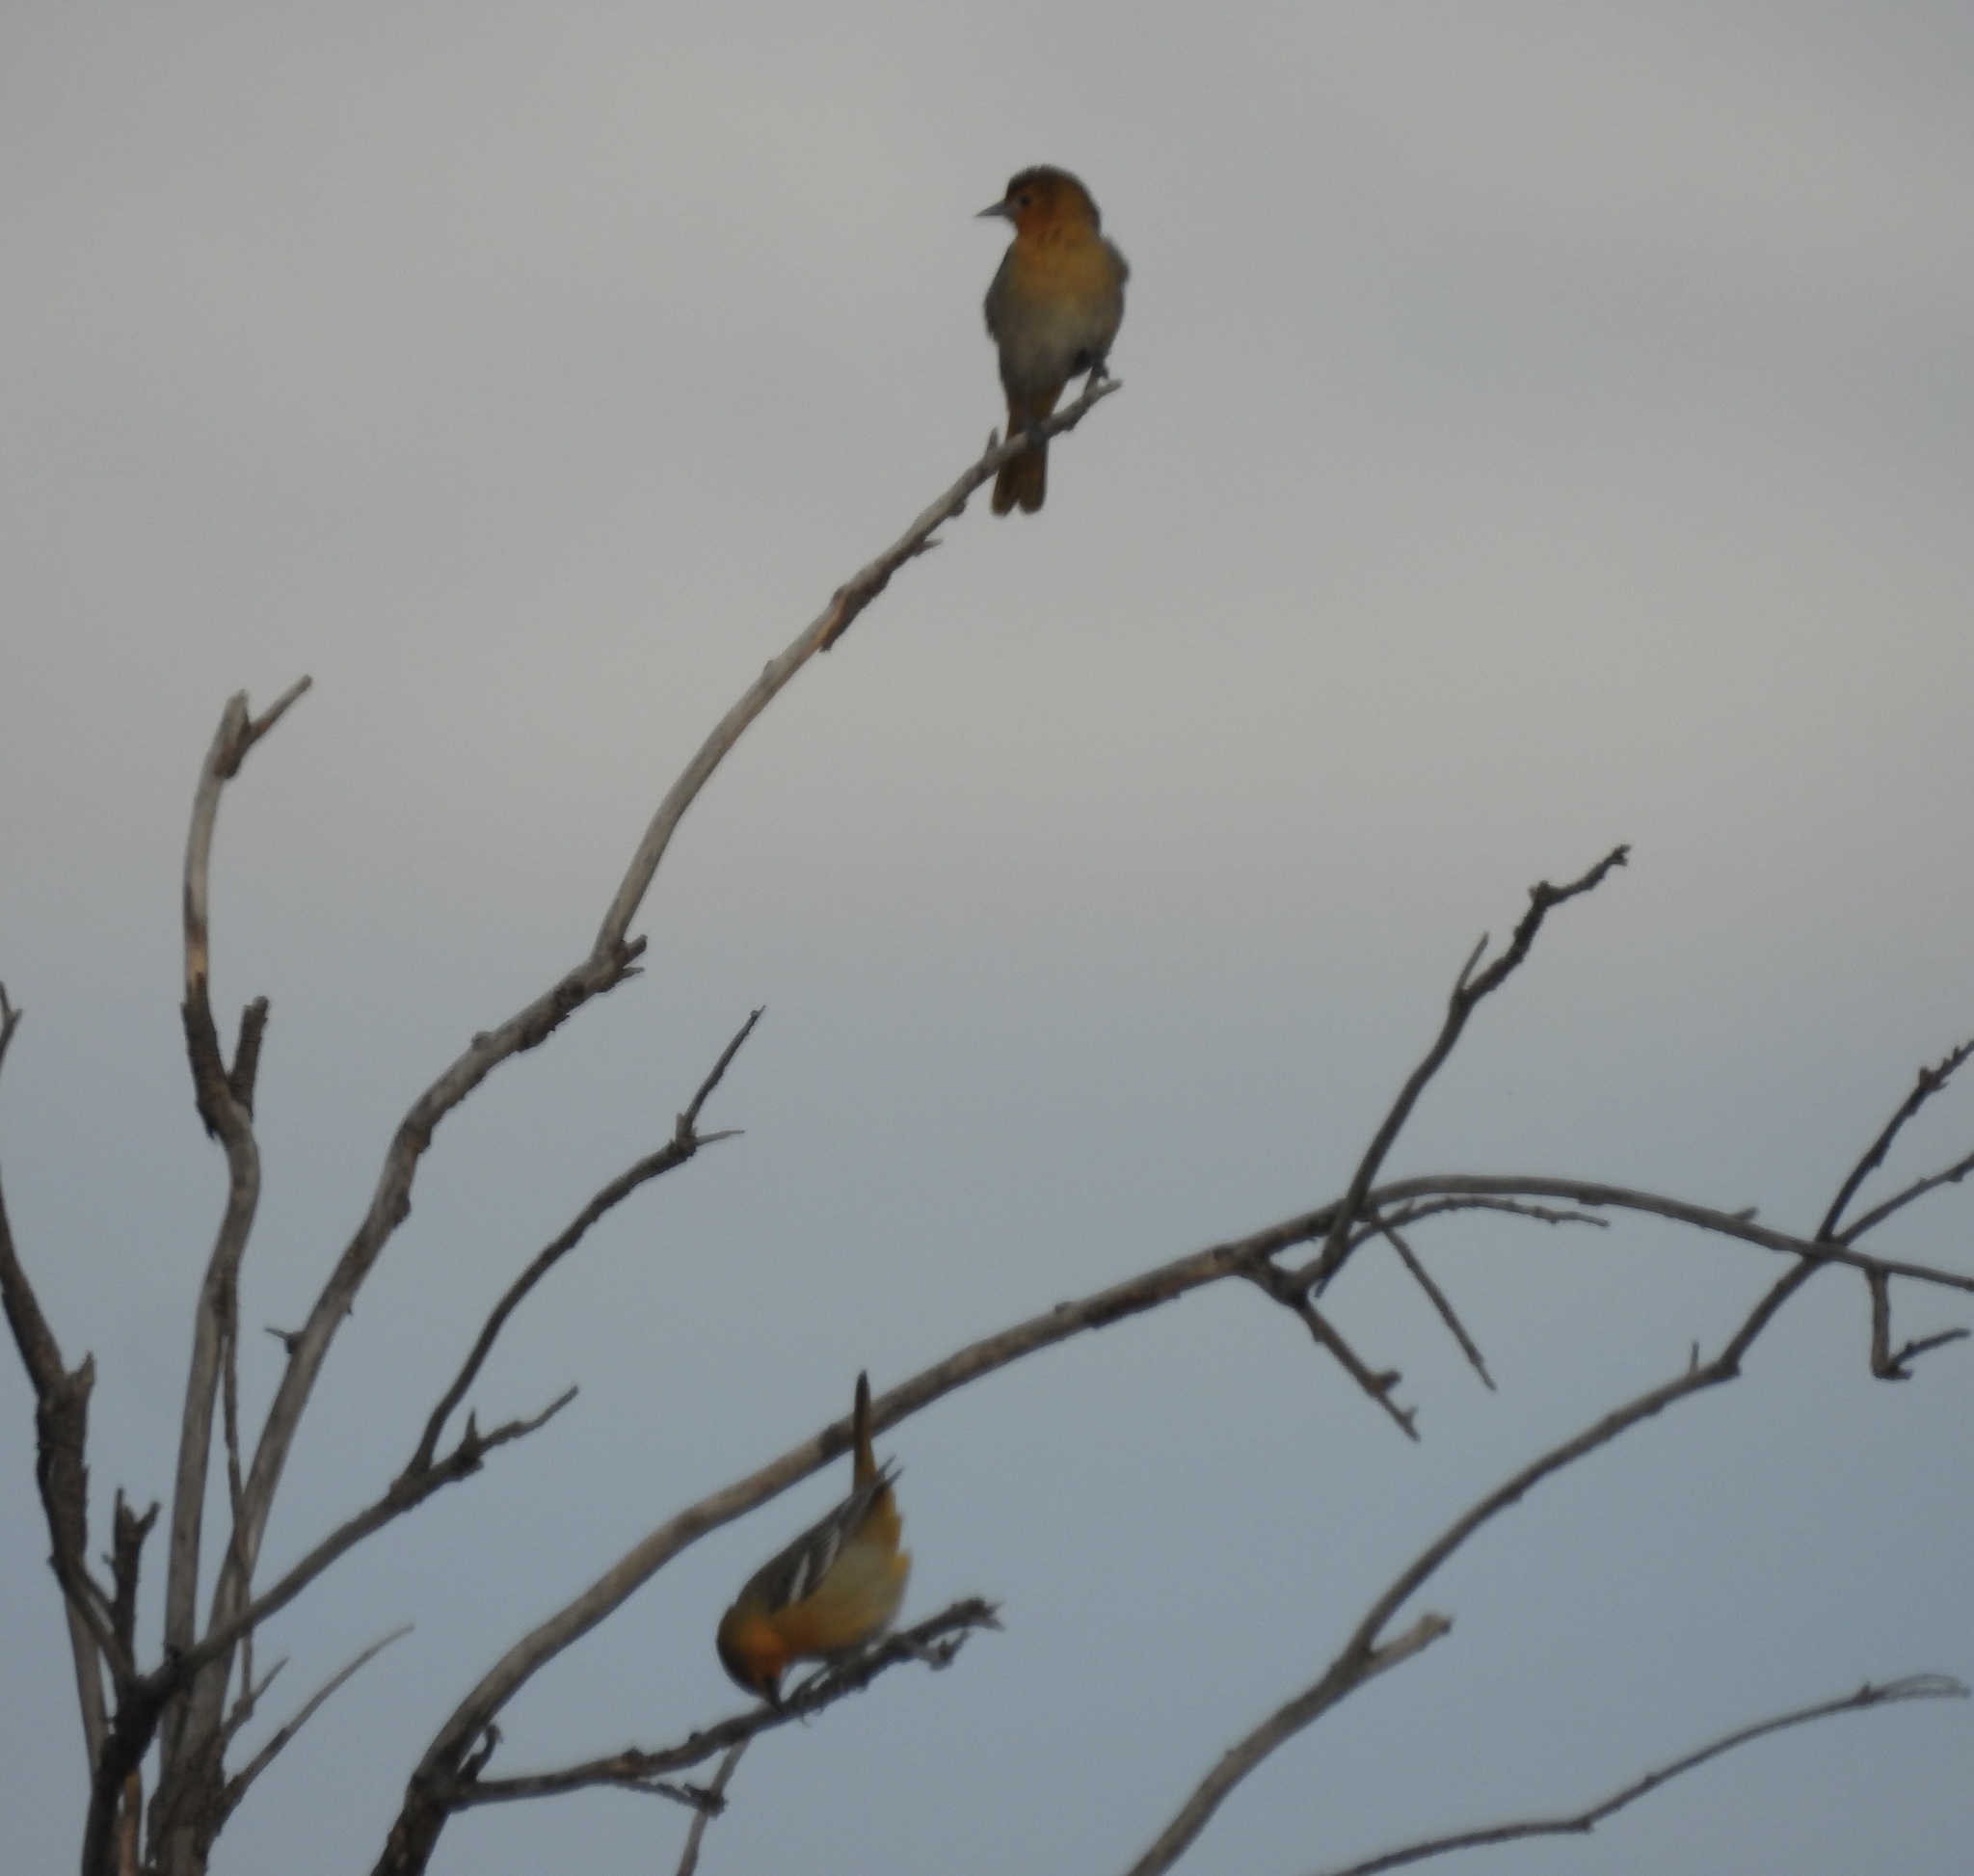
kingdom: Animalia
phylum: Chordata
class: Aves
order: Passeriformes
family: Icteridae
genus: Icterus
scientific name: Icterus bullockii
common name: Bullock's oriole
